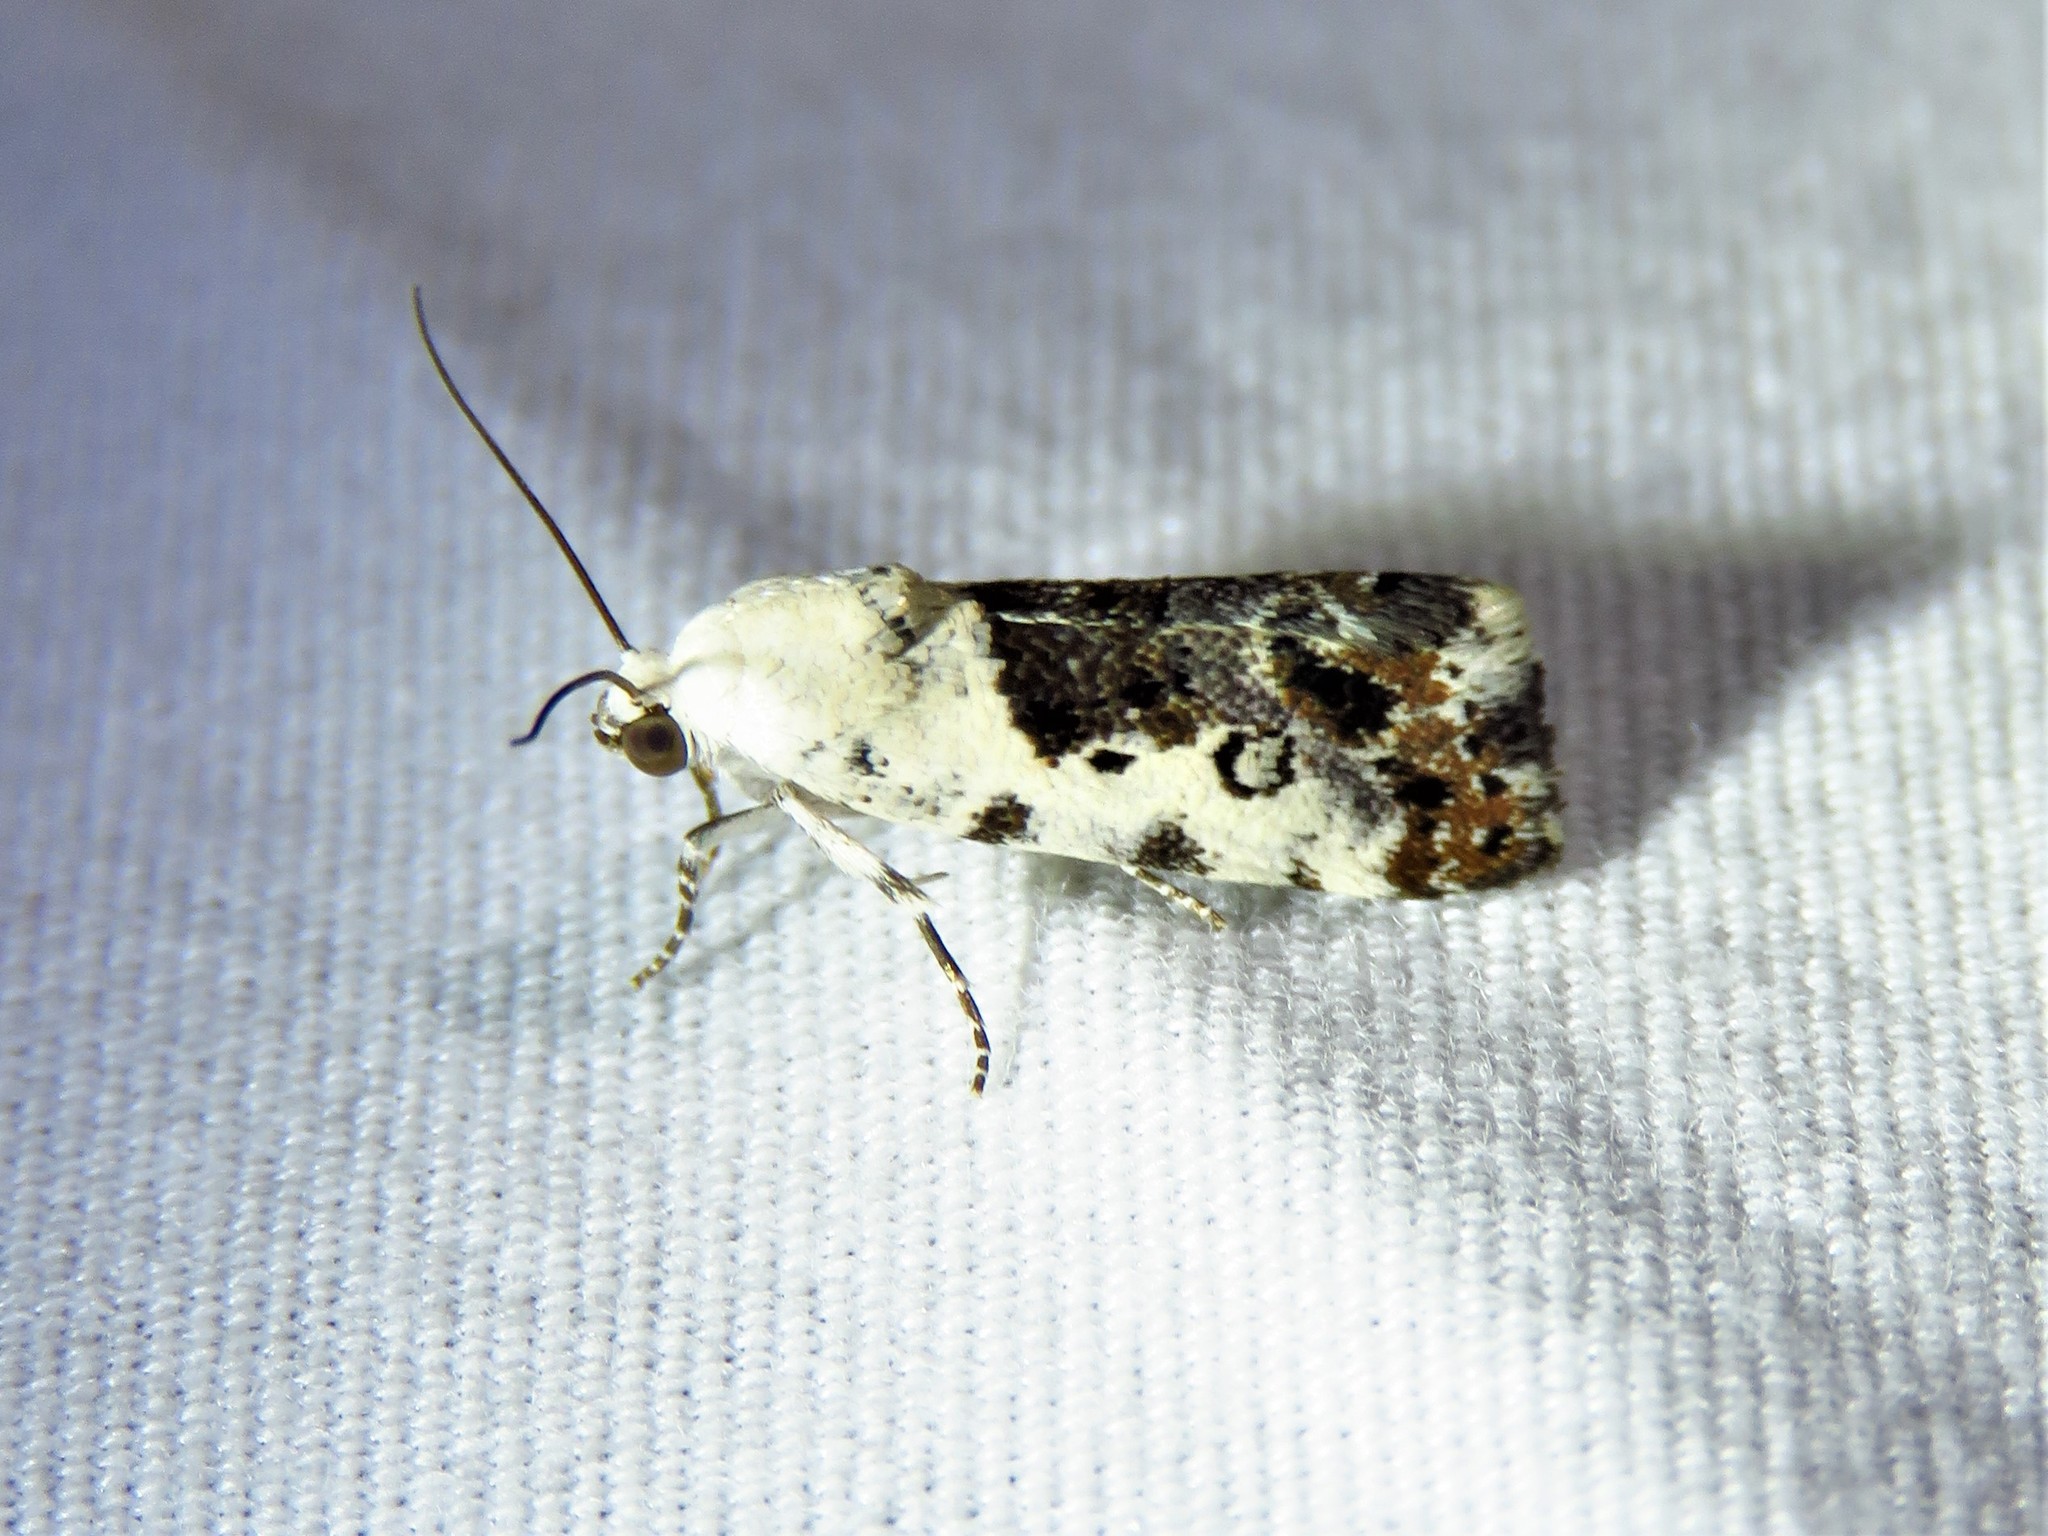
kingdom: Animalia
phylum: Arthropoda
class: Insecta
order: Lepidoptera
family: Noctuidae
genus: Acontia
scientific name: Acontia phecolisca
